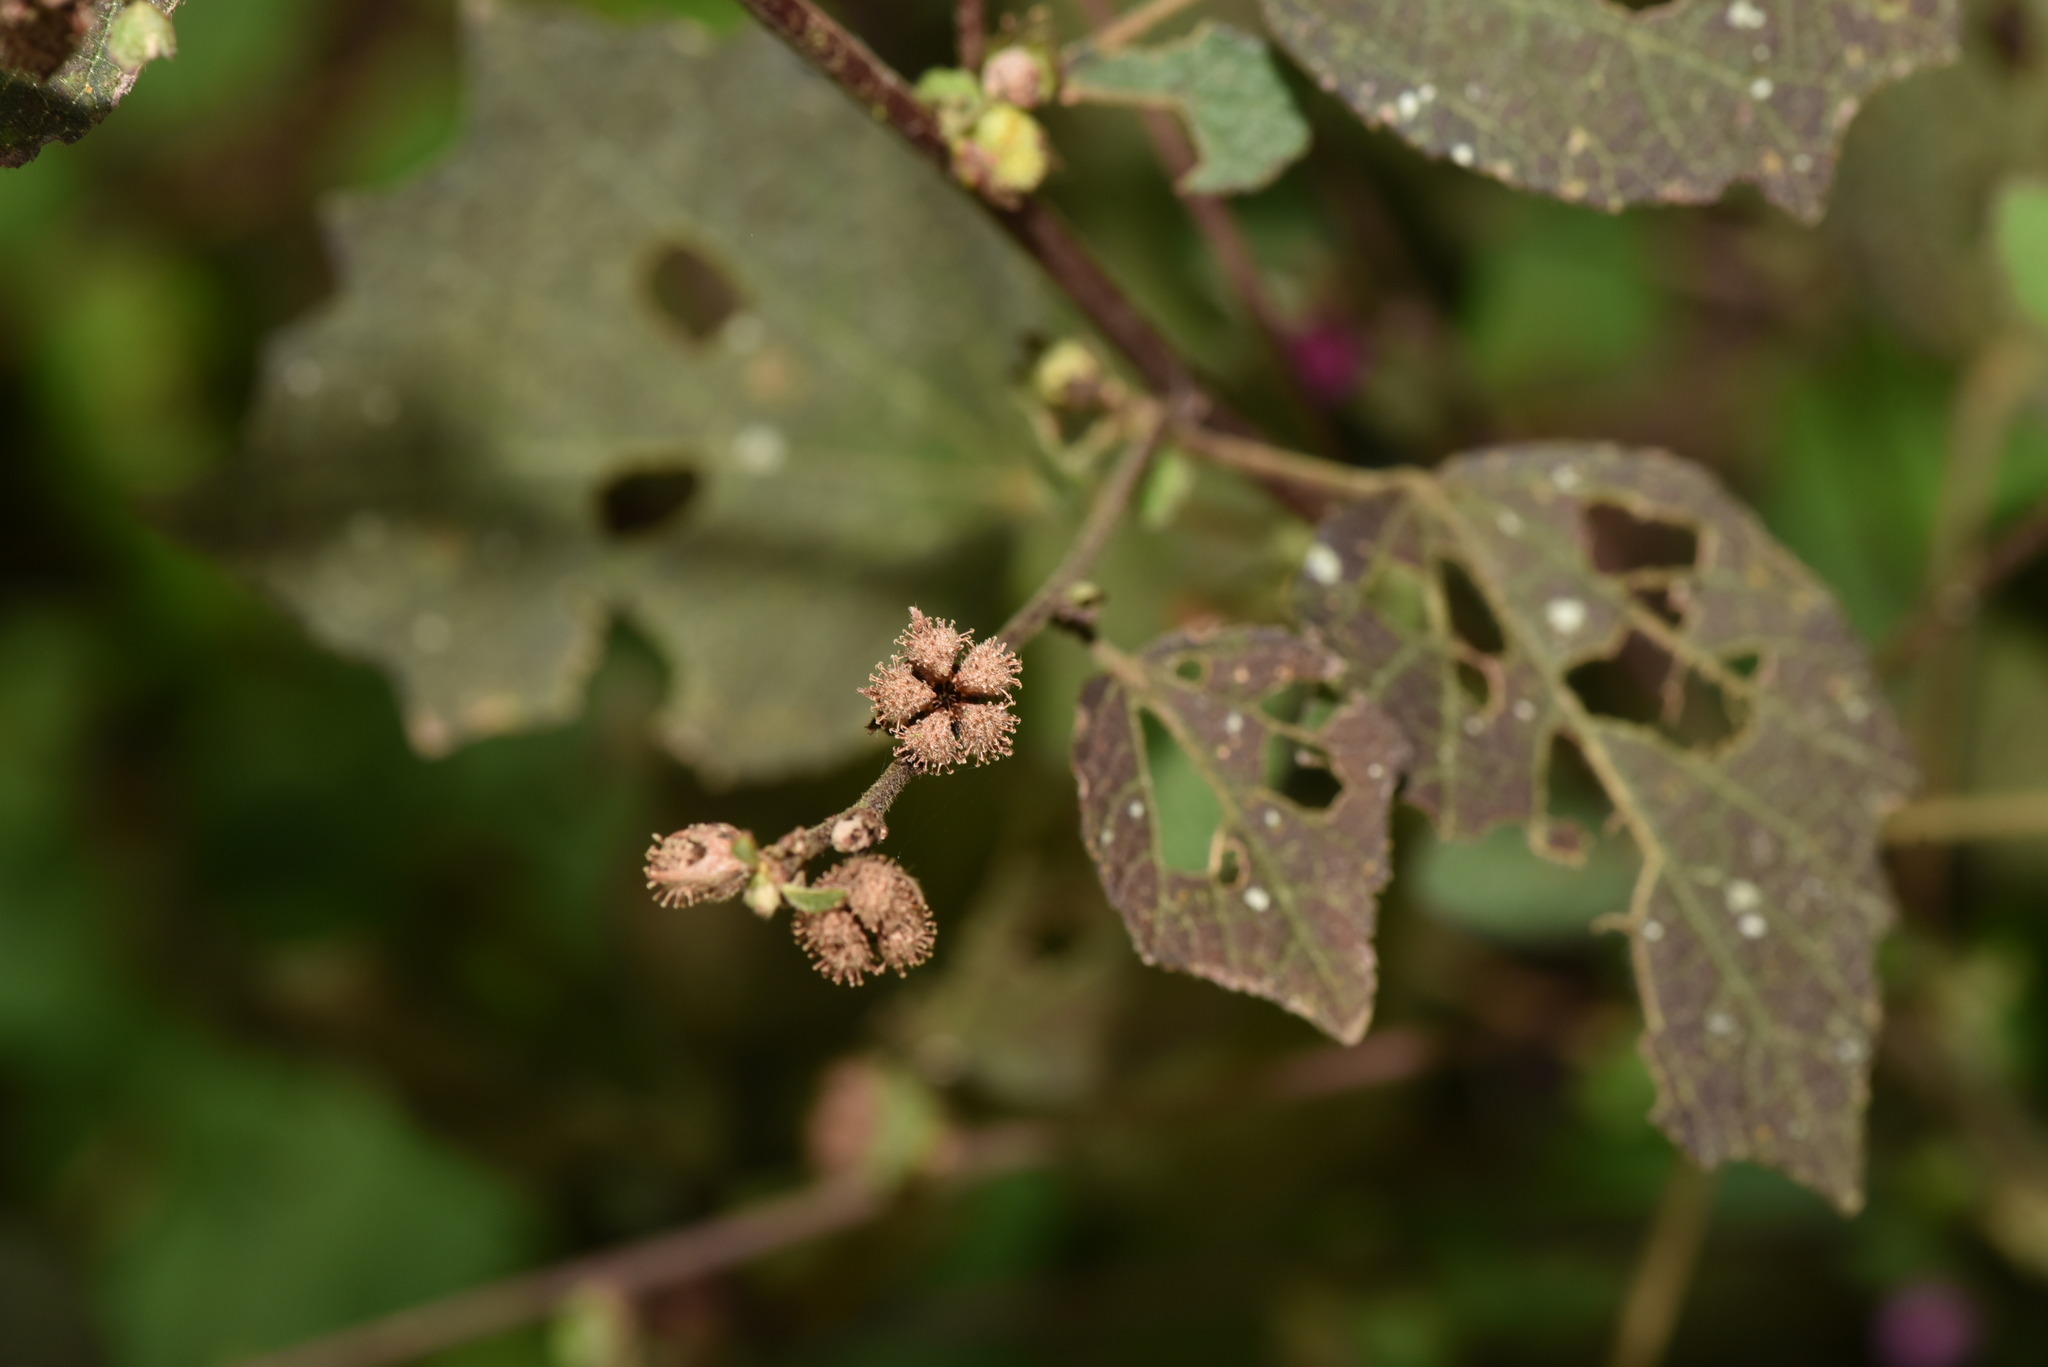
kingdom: Plantae
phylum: Tracheophyta
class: Magnoliopsida
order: Malvales
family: Malvaceae
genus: Urena
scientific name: Urena lobata
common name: Caesarweed
